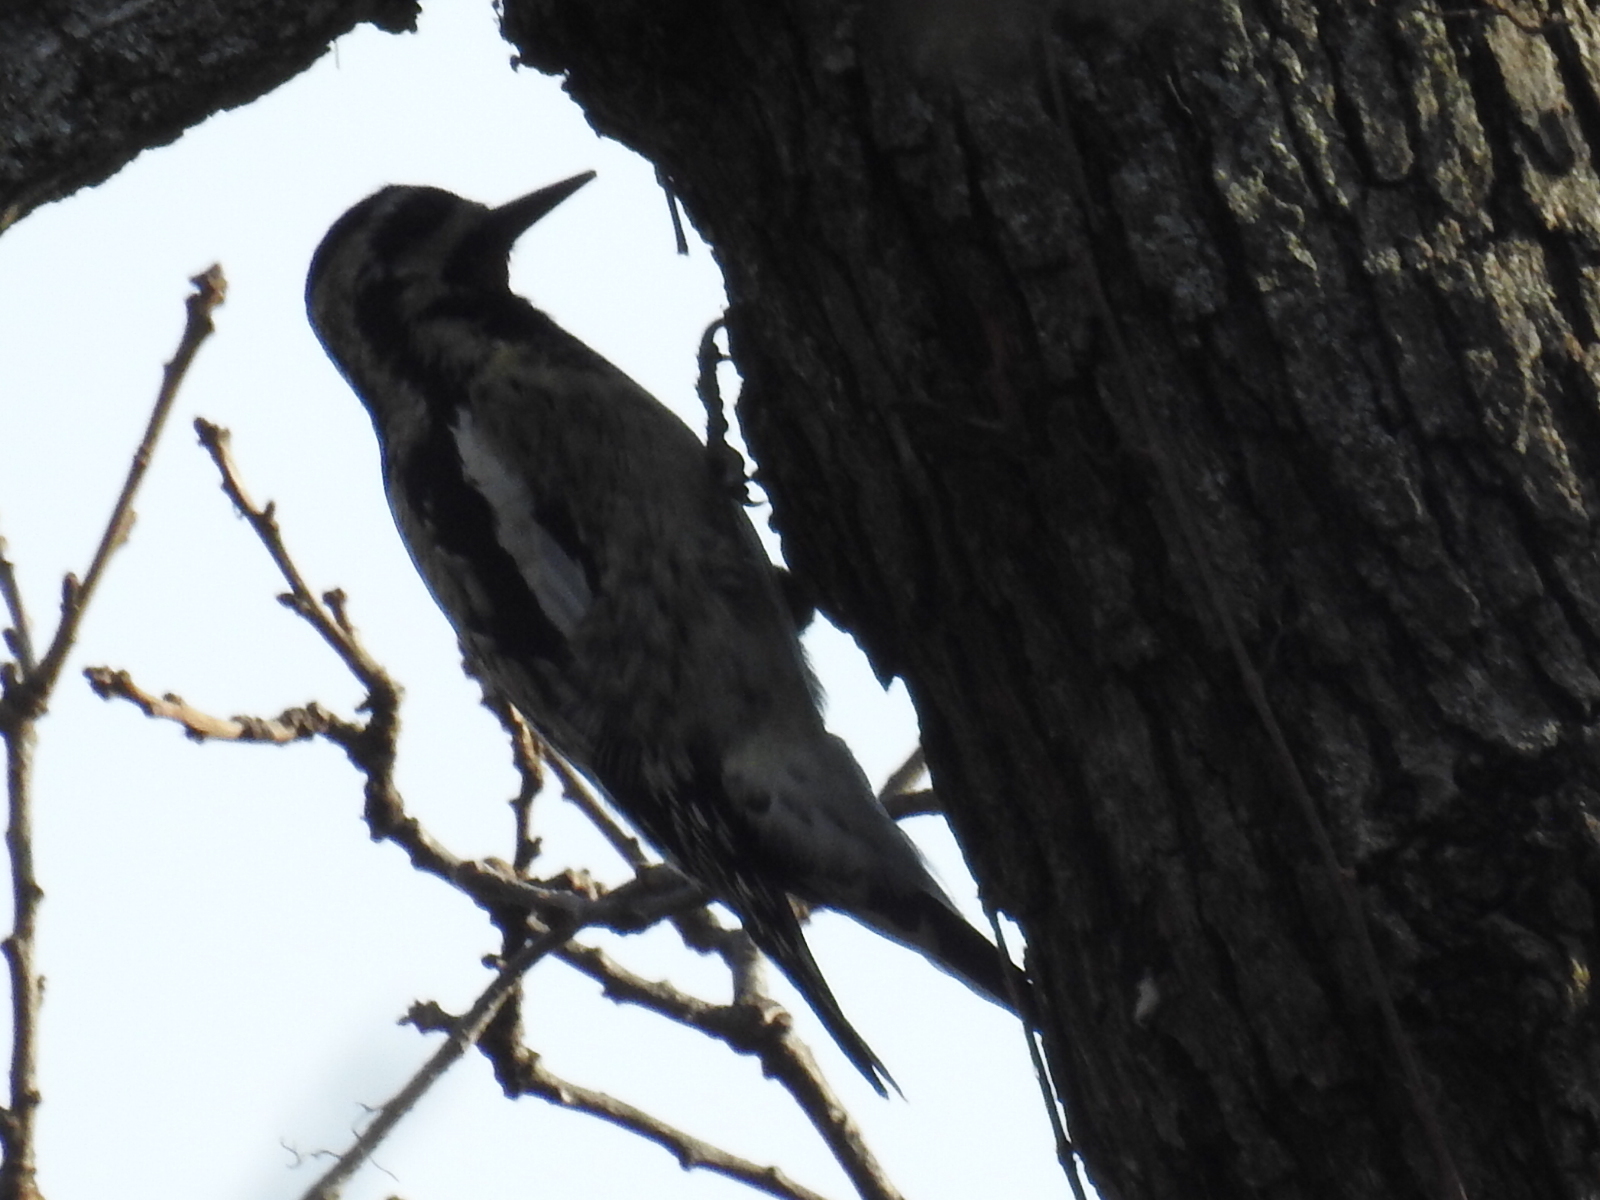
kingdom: Animalia
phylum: Chordata
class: Aves
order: Piciformes
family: Picidae
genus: Sphyrapicus
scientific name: Sphyrapicus varius
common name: Yellow-bellied sapsucker
